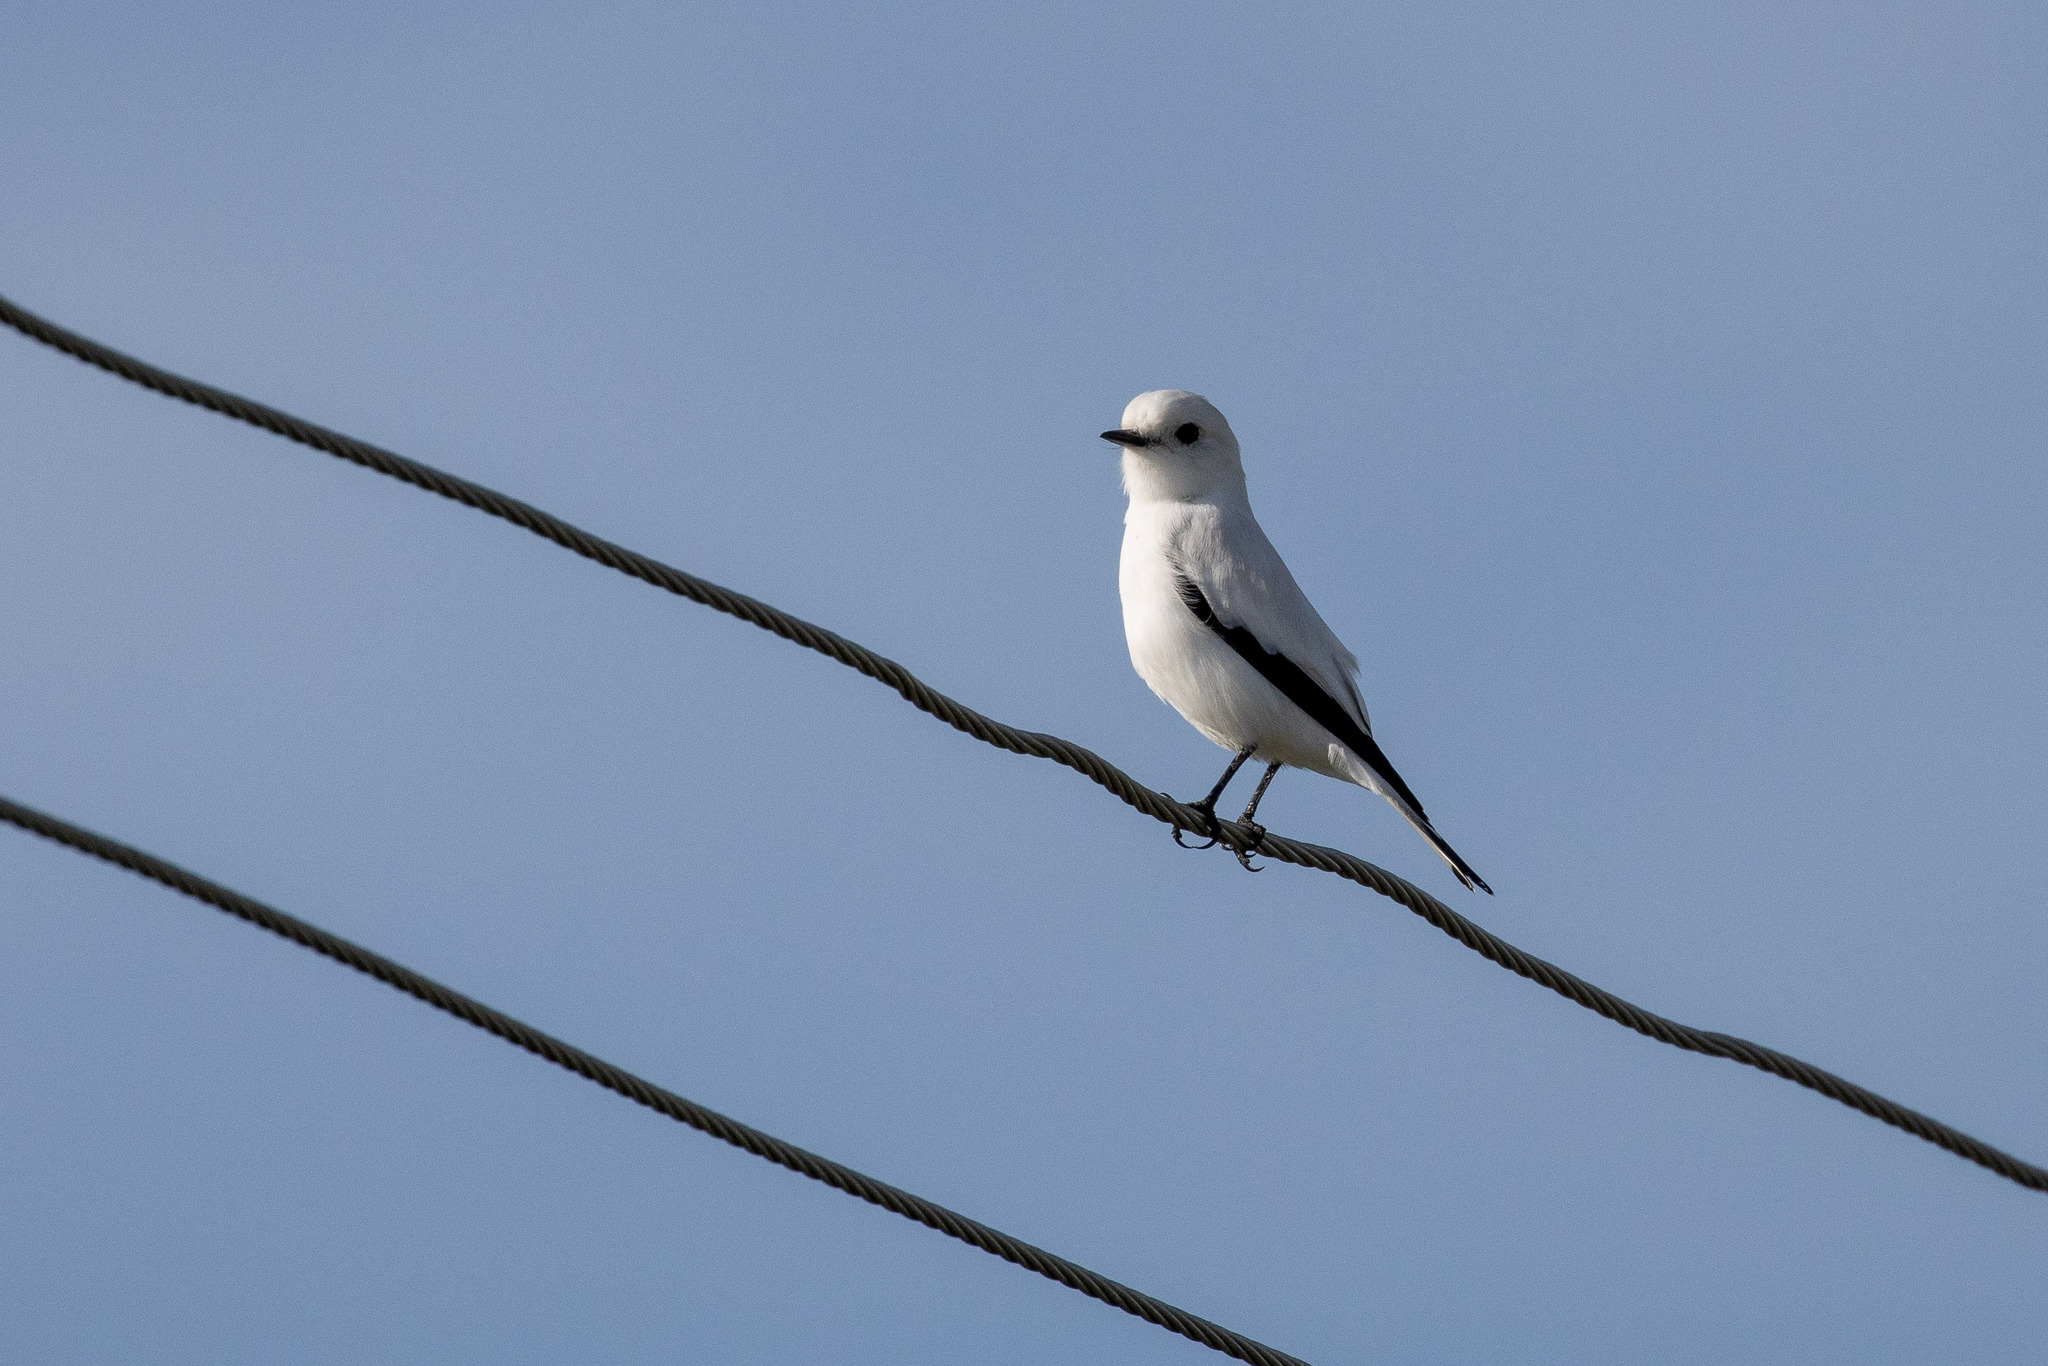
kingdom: Animalia
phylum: Chordata
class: Aves
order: Passeriformes
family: Tyrannidae
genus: Xolmis
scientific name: Xolmis irupero
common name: White monjita
